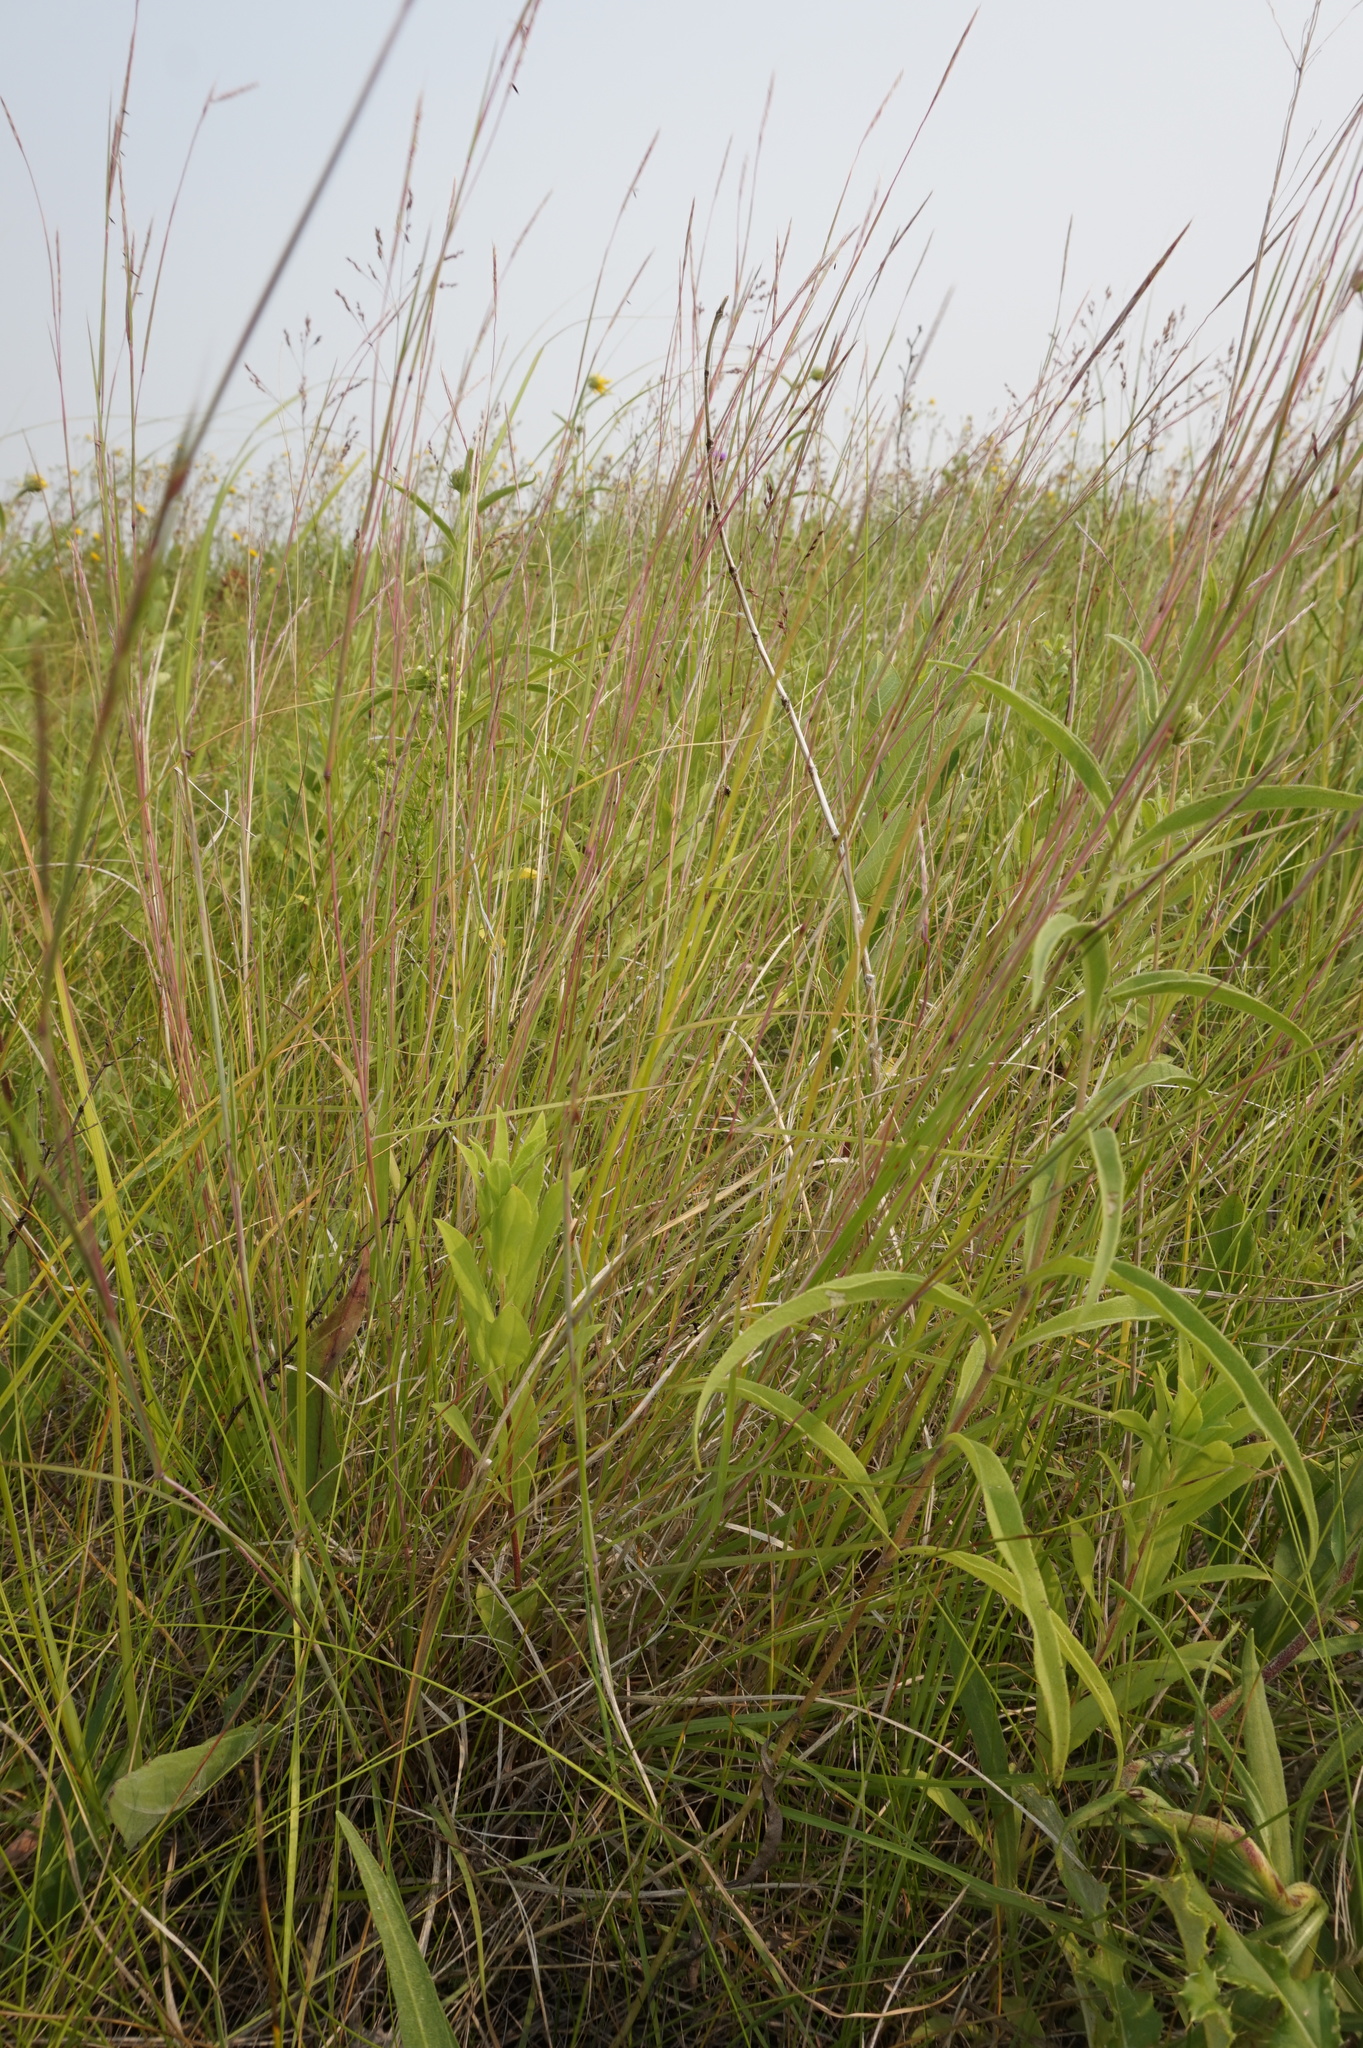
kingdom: Plantae
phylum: Tracheophyta
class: Liliopsida
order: Poales
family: Poaceae
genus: Schizachyrium
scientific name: Schizachyrium scoparium
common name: Little bluestem
